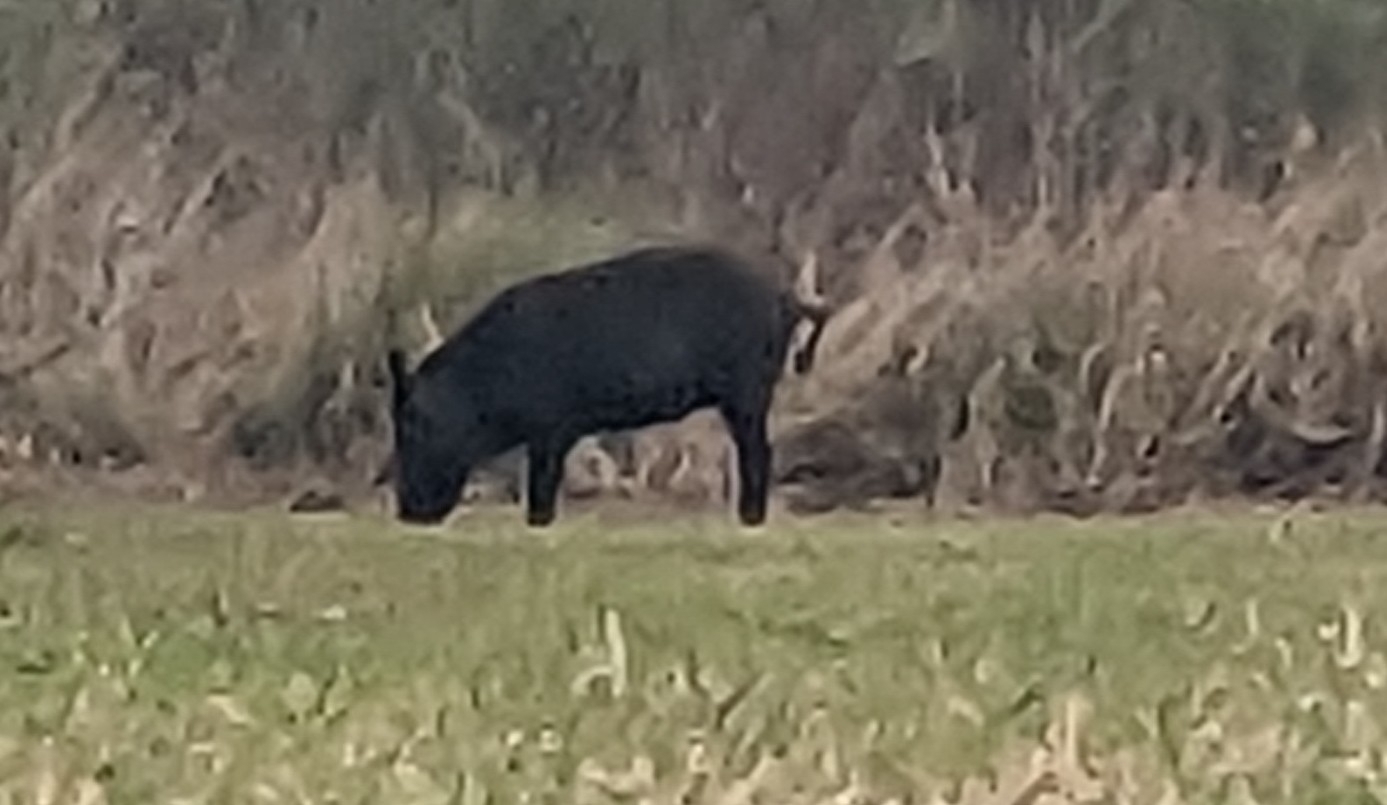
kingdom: Animalia
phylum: Chordata
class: Mammalia
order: Artiodactyla
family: Suidae
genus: Sus
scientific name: Sus scrofa
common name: Wild boar
